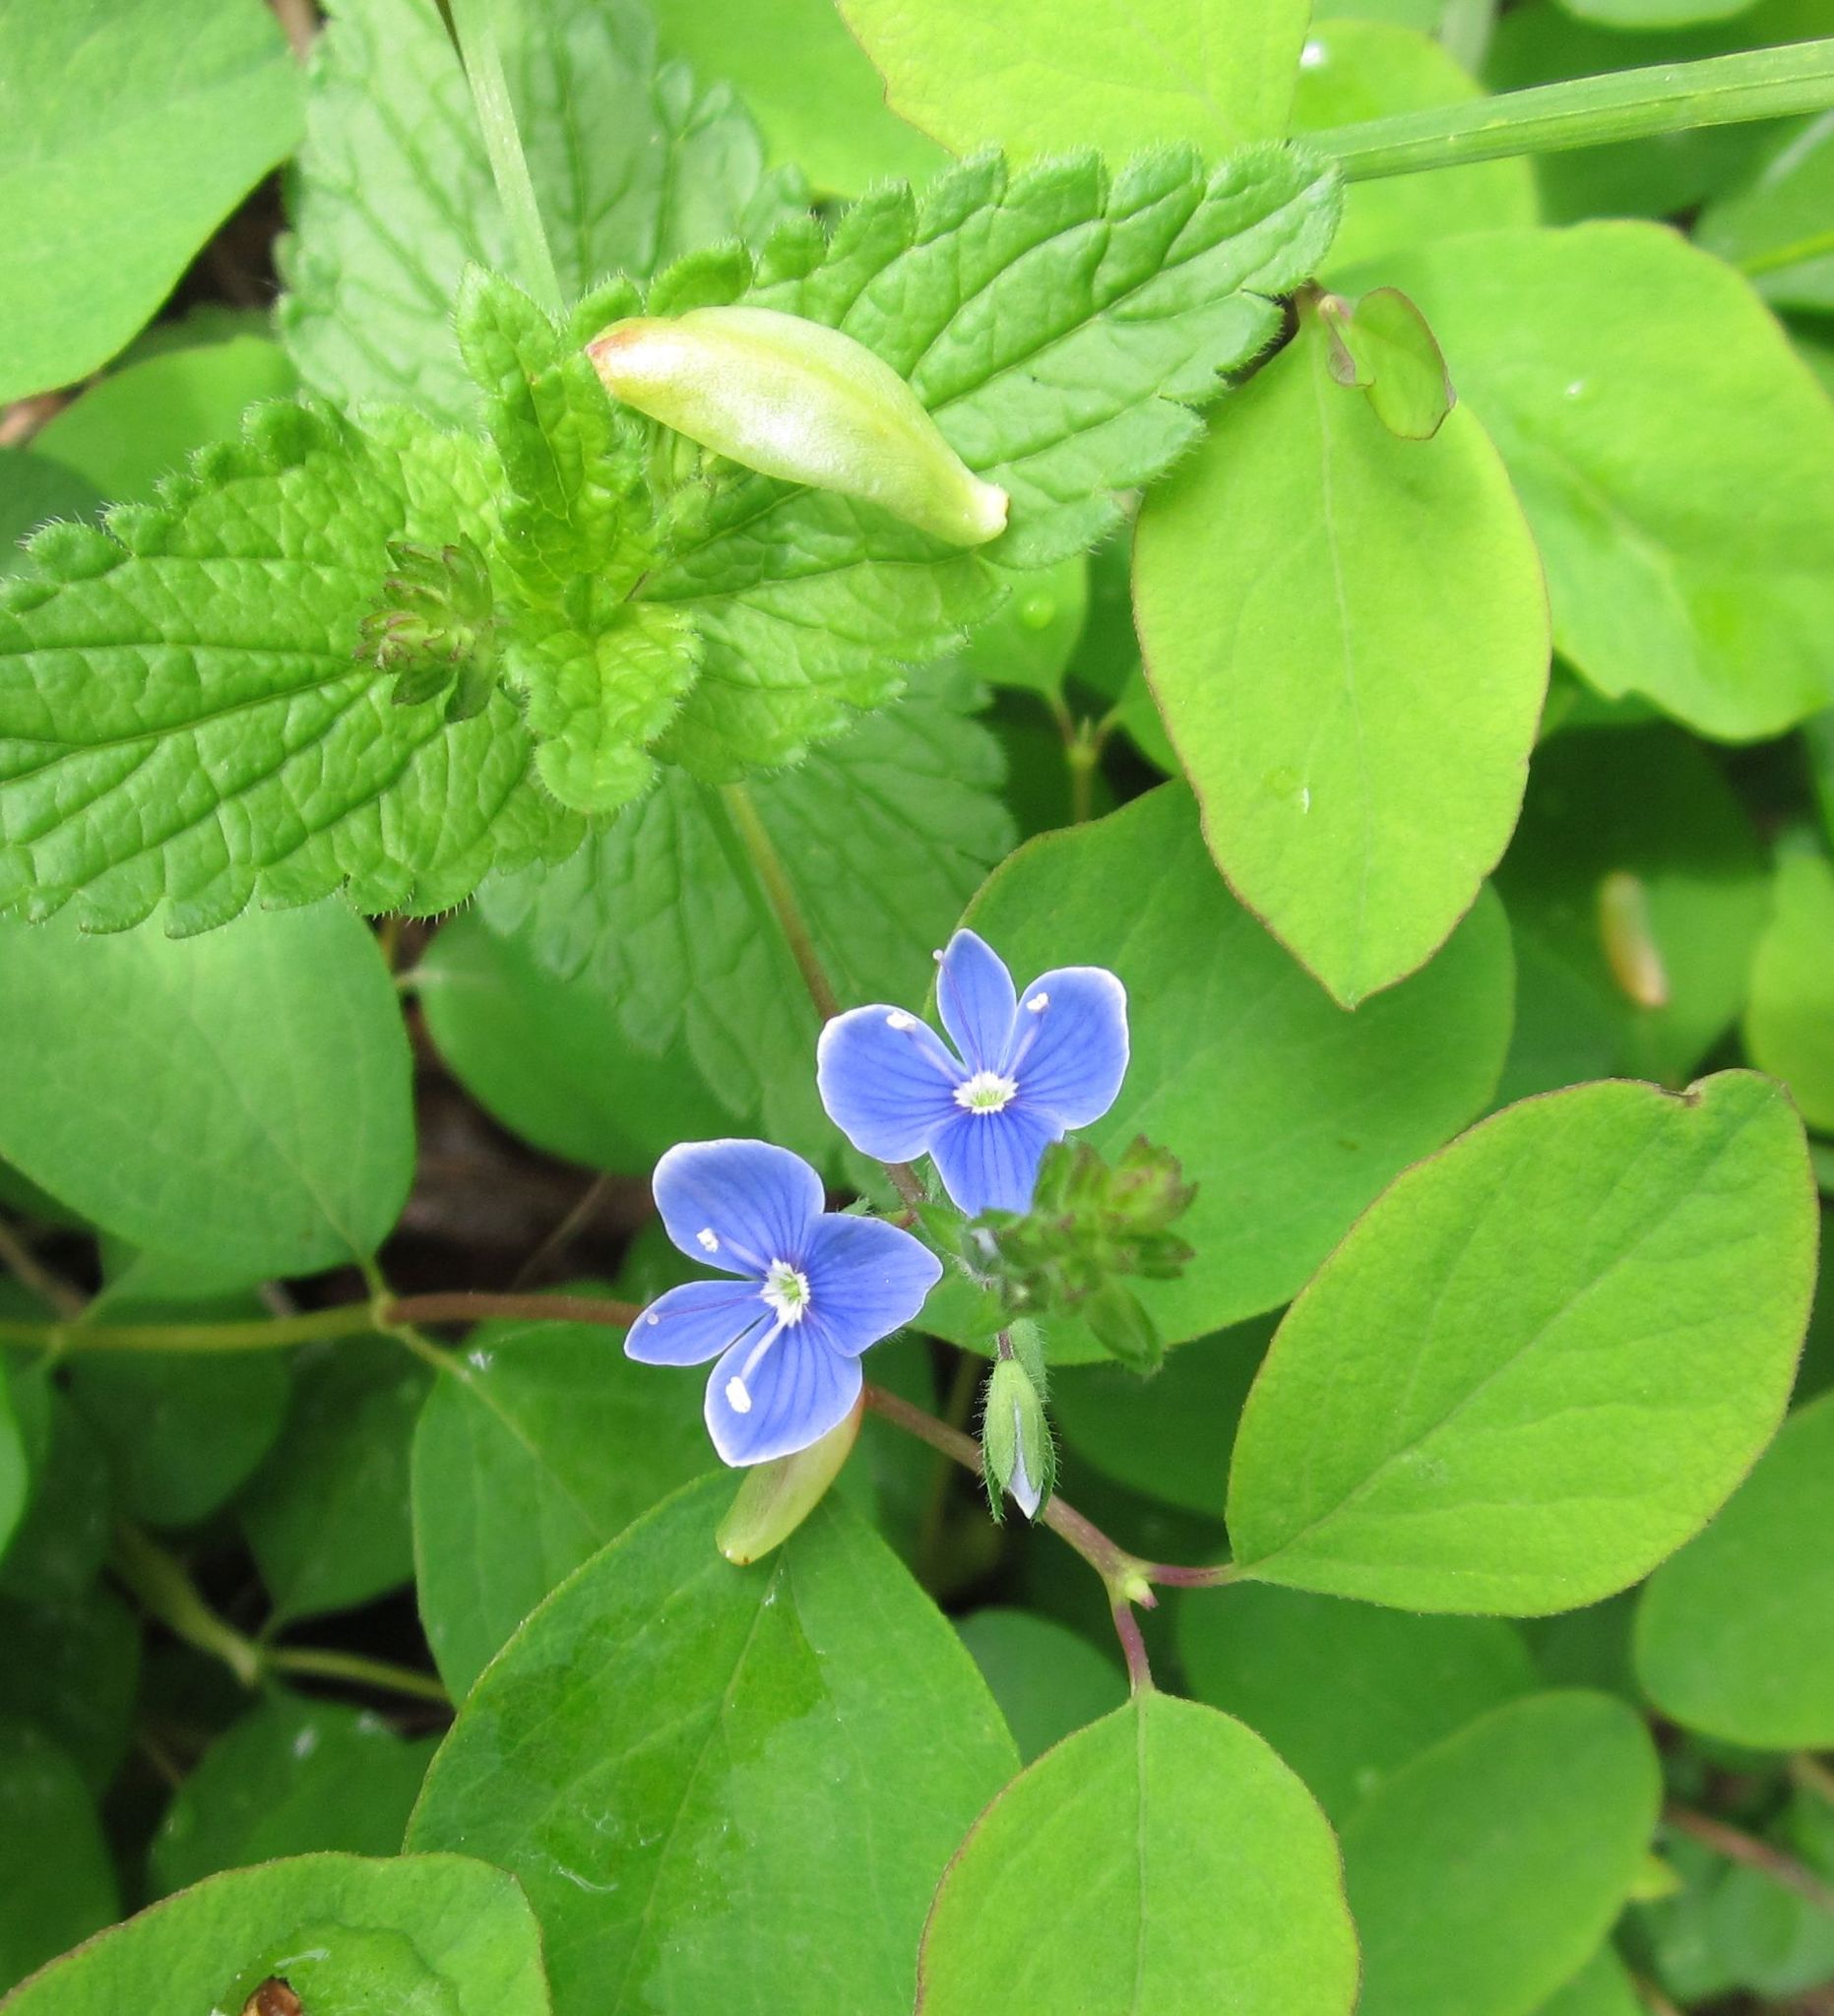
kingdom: Plantae
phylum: Tracheophyta
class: Magnoliopsida
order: Lamiales
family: Plantaginaceae
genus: Veronica
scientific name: Veronica chamaedrys
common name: Germander speedwell
